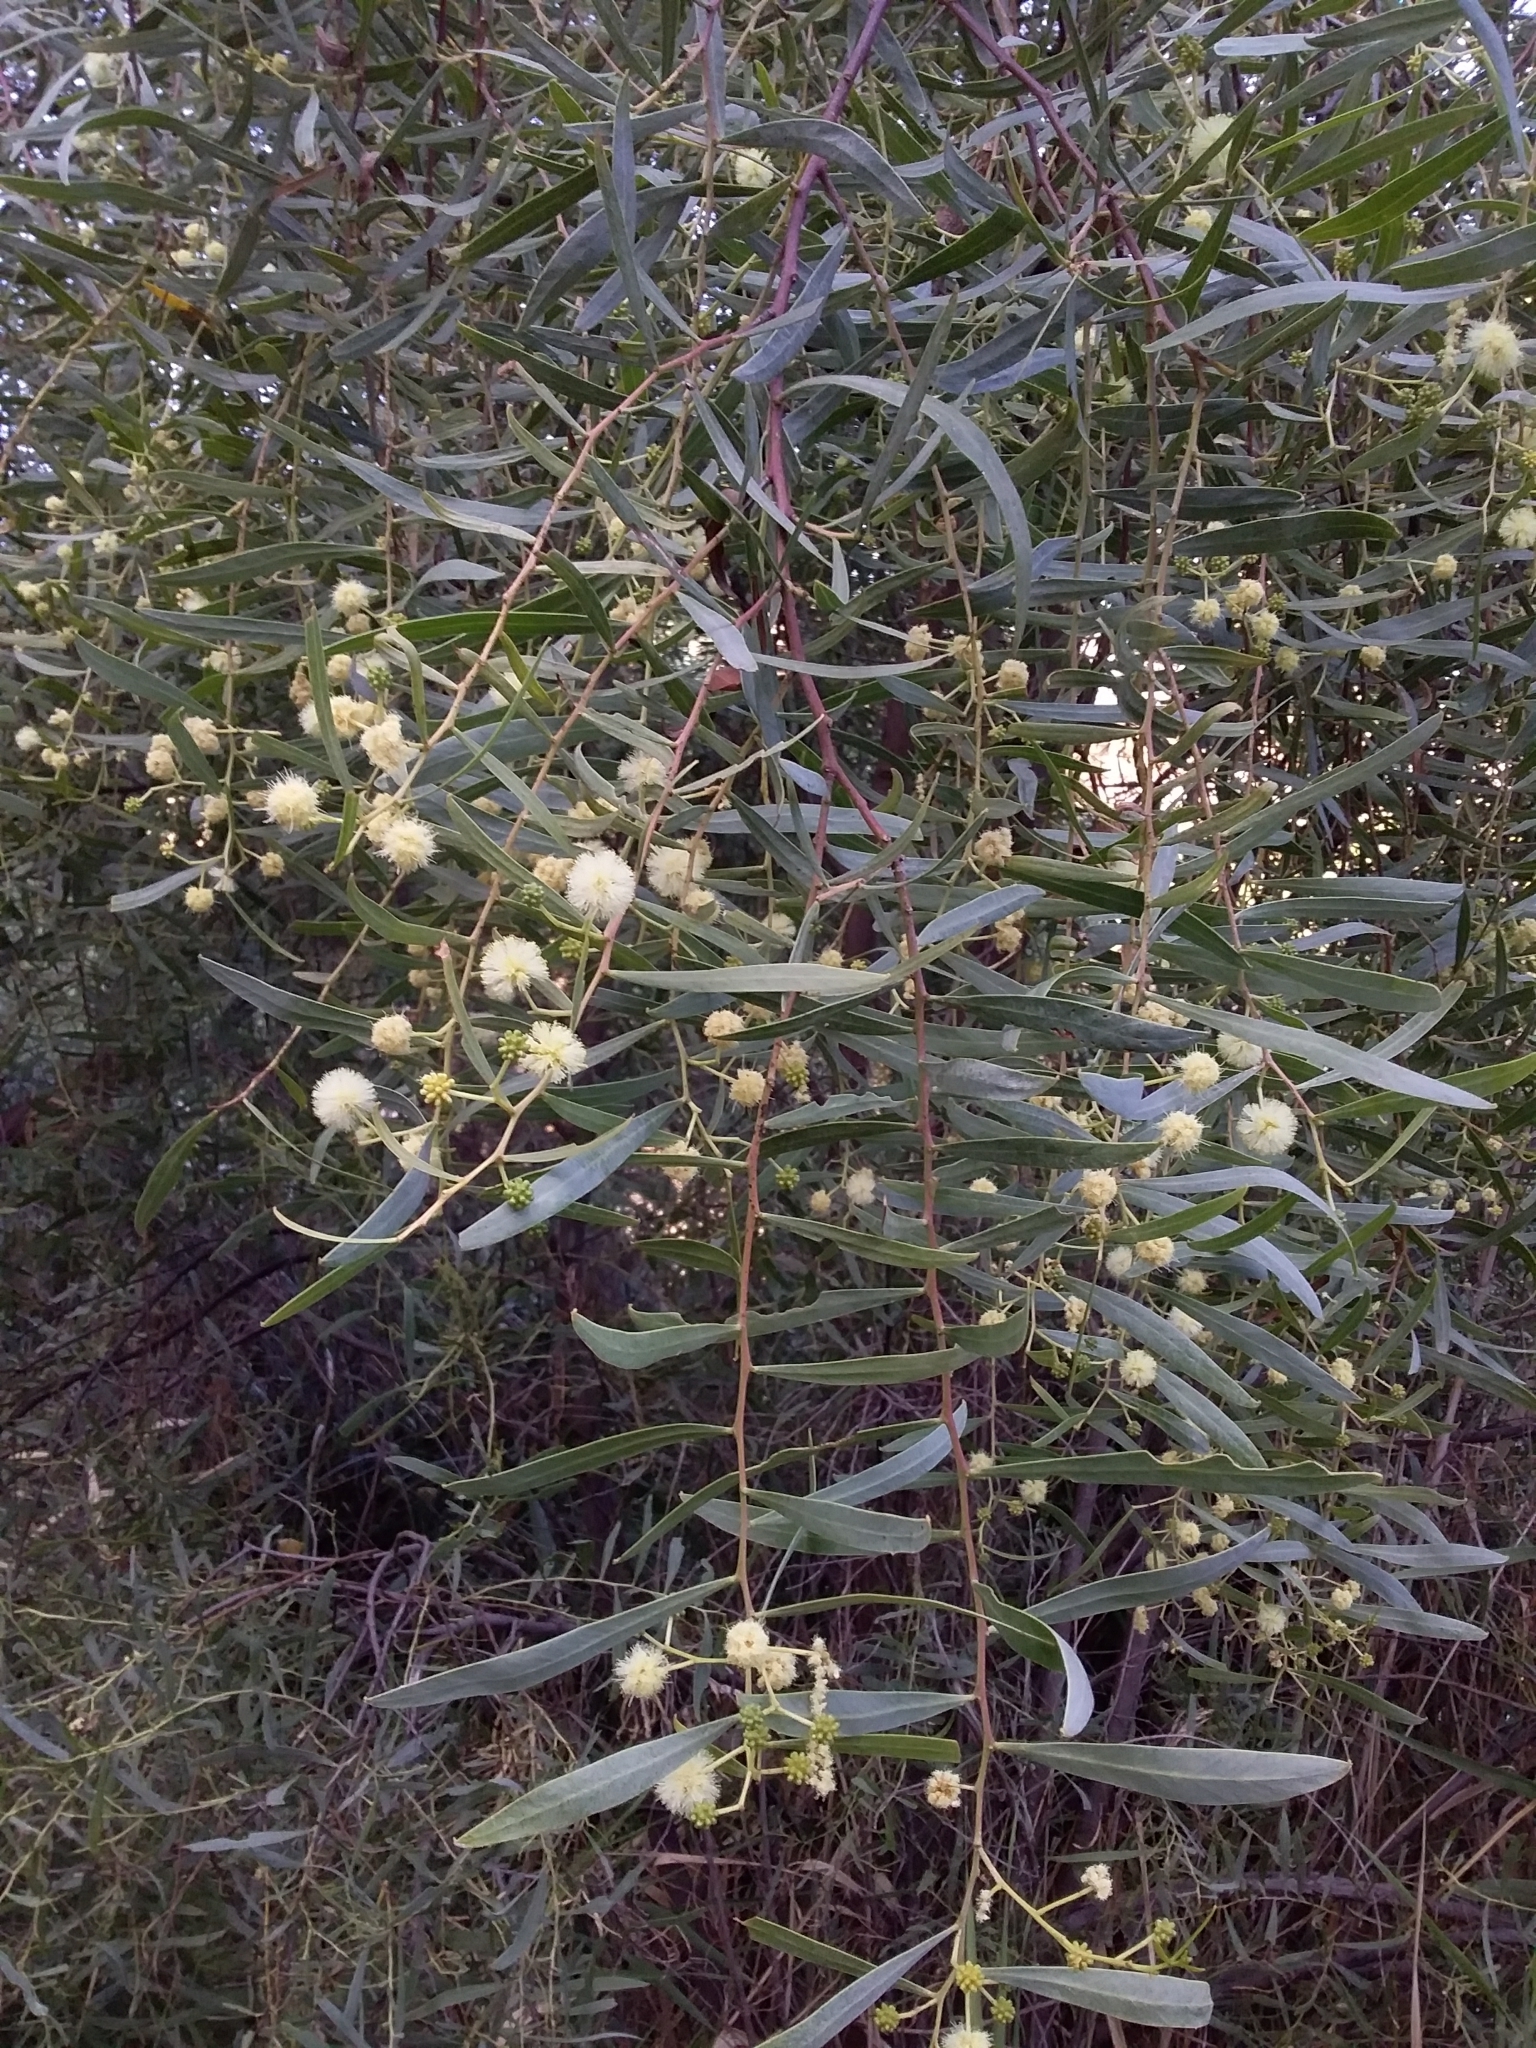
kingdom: Plantae
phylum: Tracheophyta
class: Magnoliopsida
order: Fabales
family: Fabaceae
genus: Acacia
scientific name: Acacia salicina
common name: Broughton willow wattle
